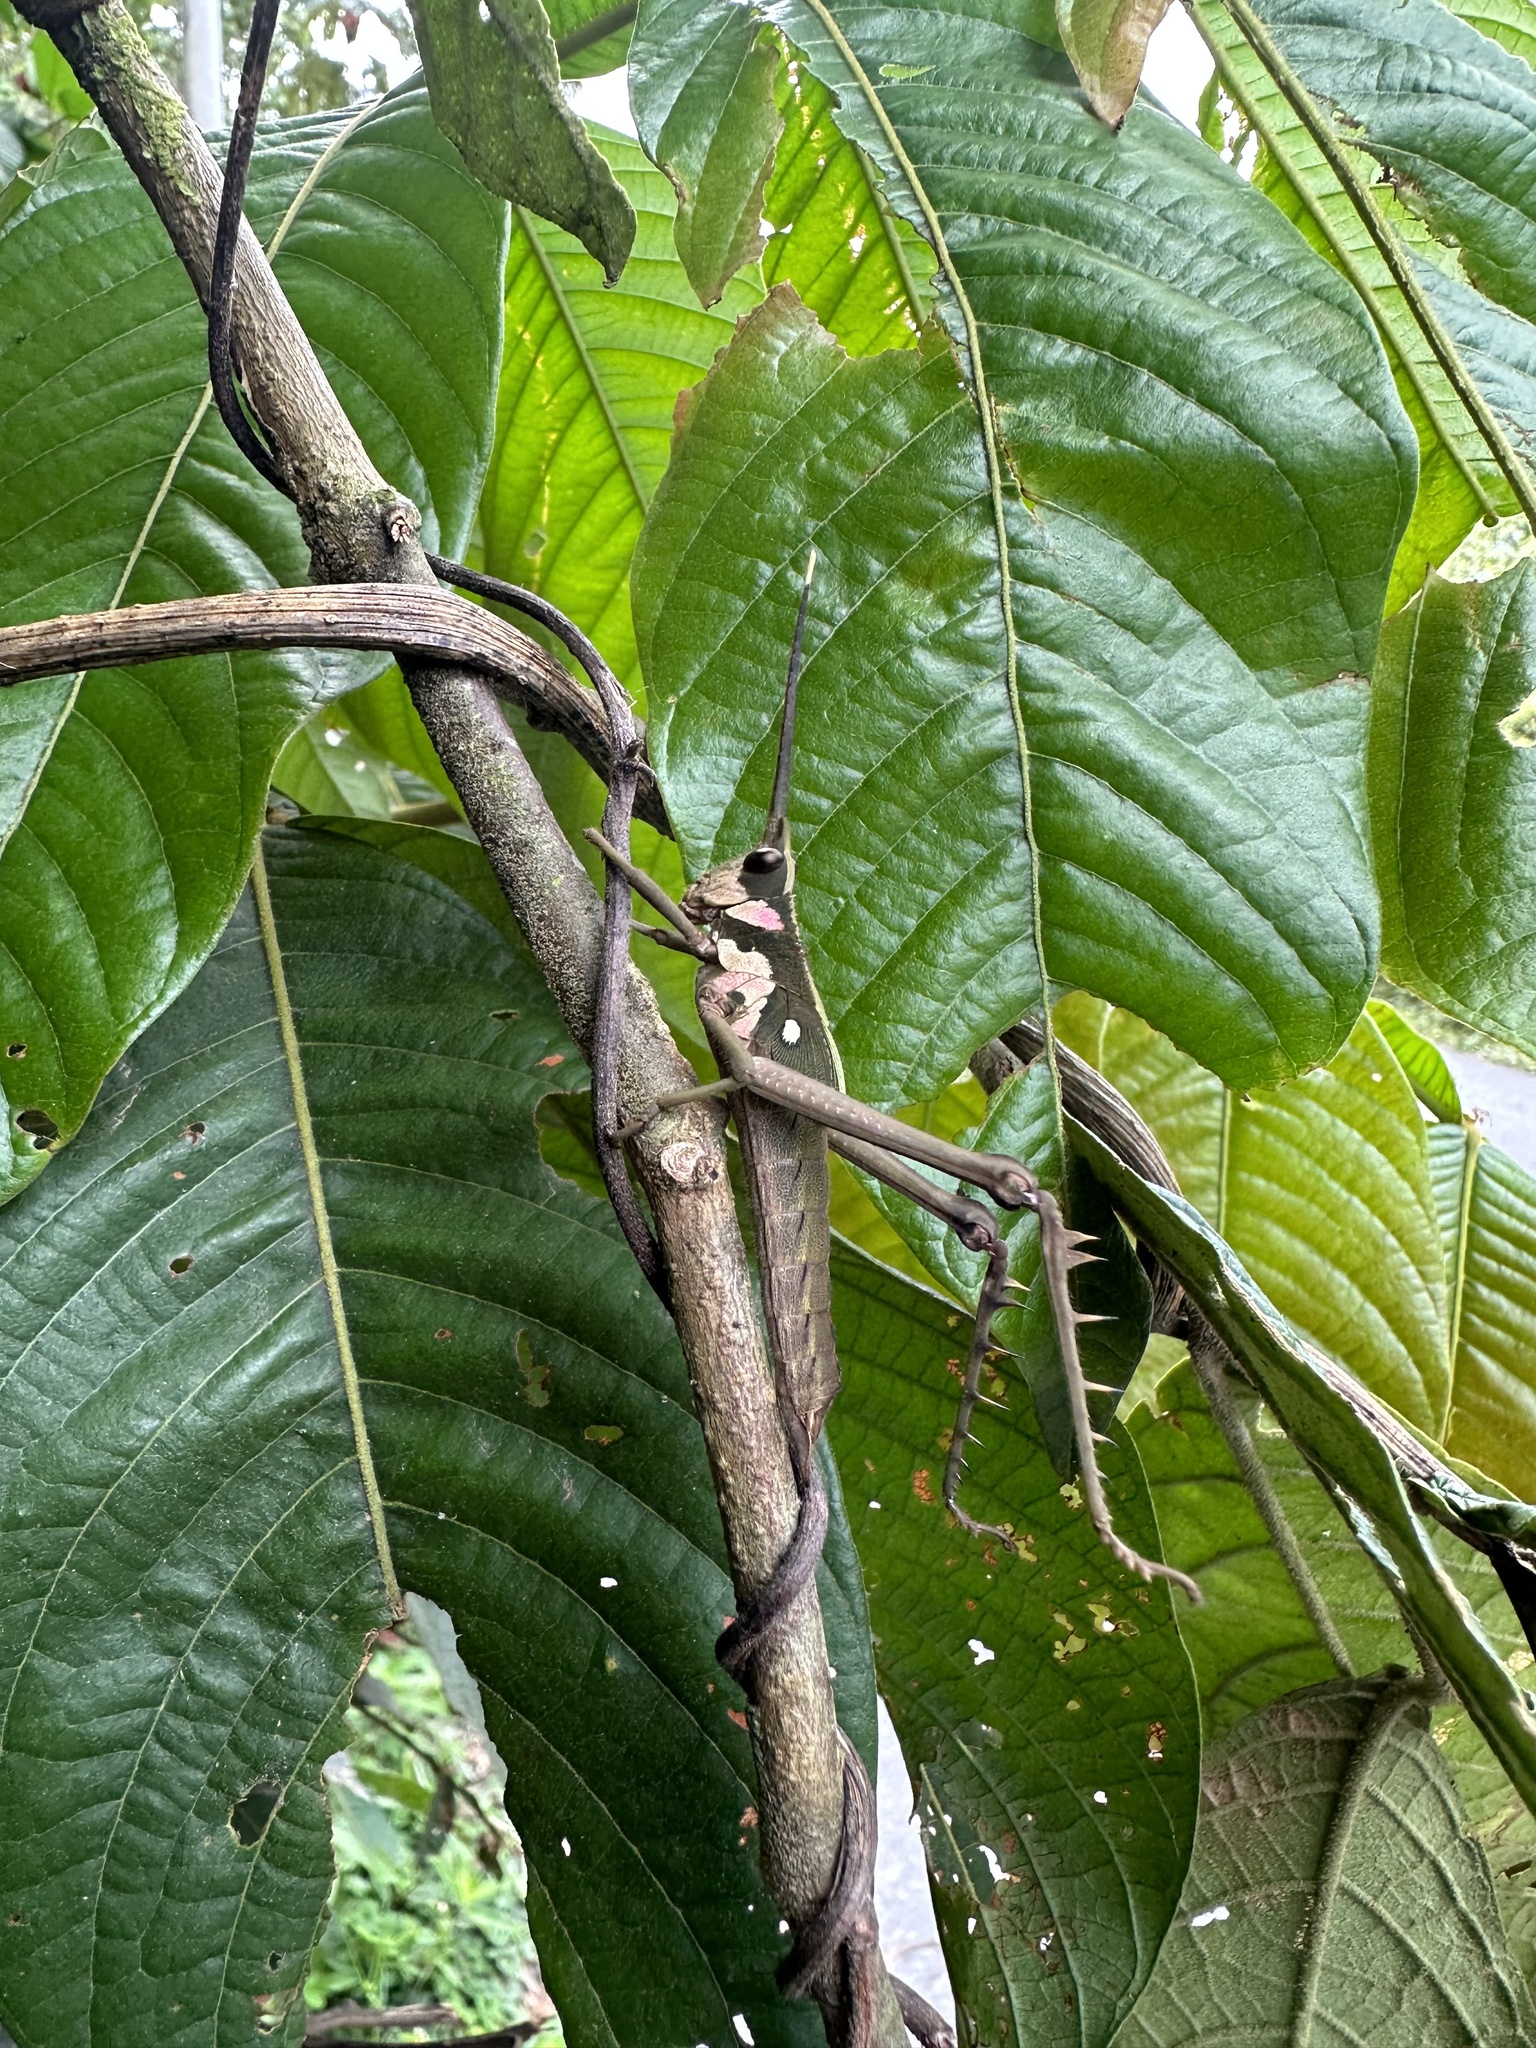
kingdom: Animalia
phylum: Arthropoda
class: Insecta
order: Orthoptera
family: Romaleidae
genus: Aeolacris
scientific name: Aeolacris octomaculata
